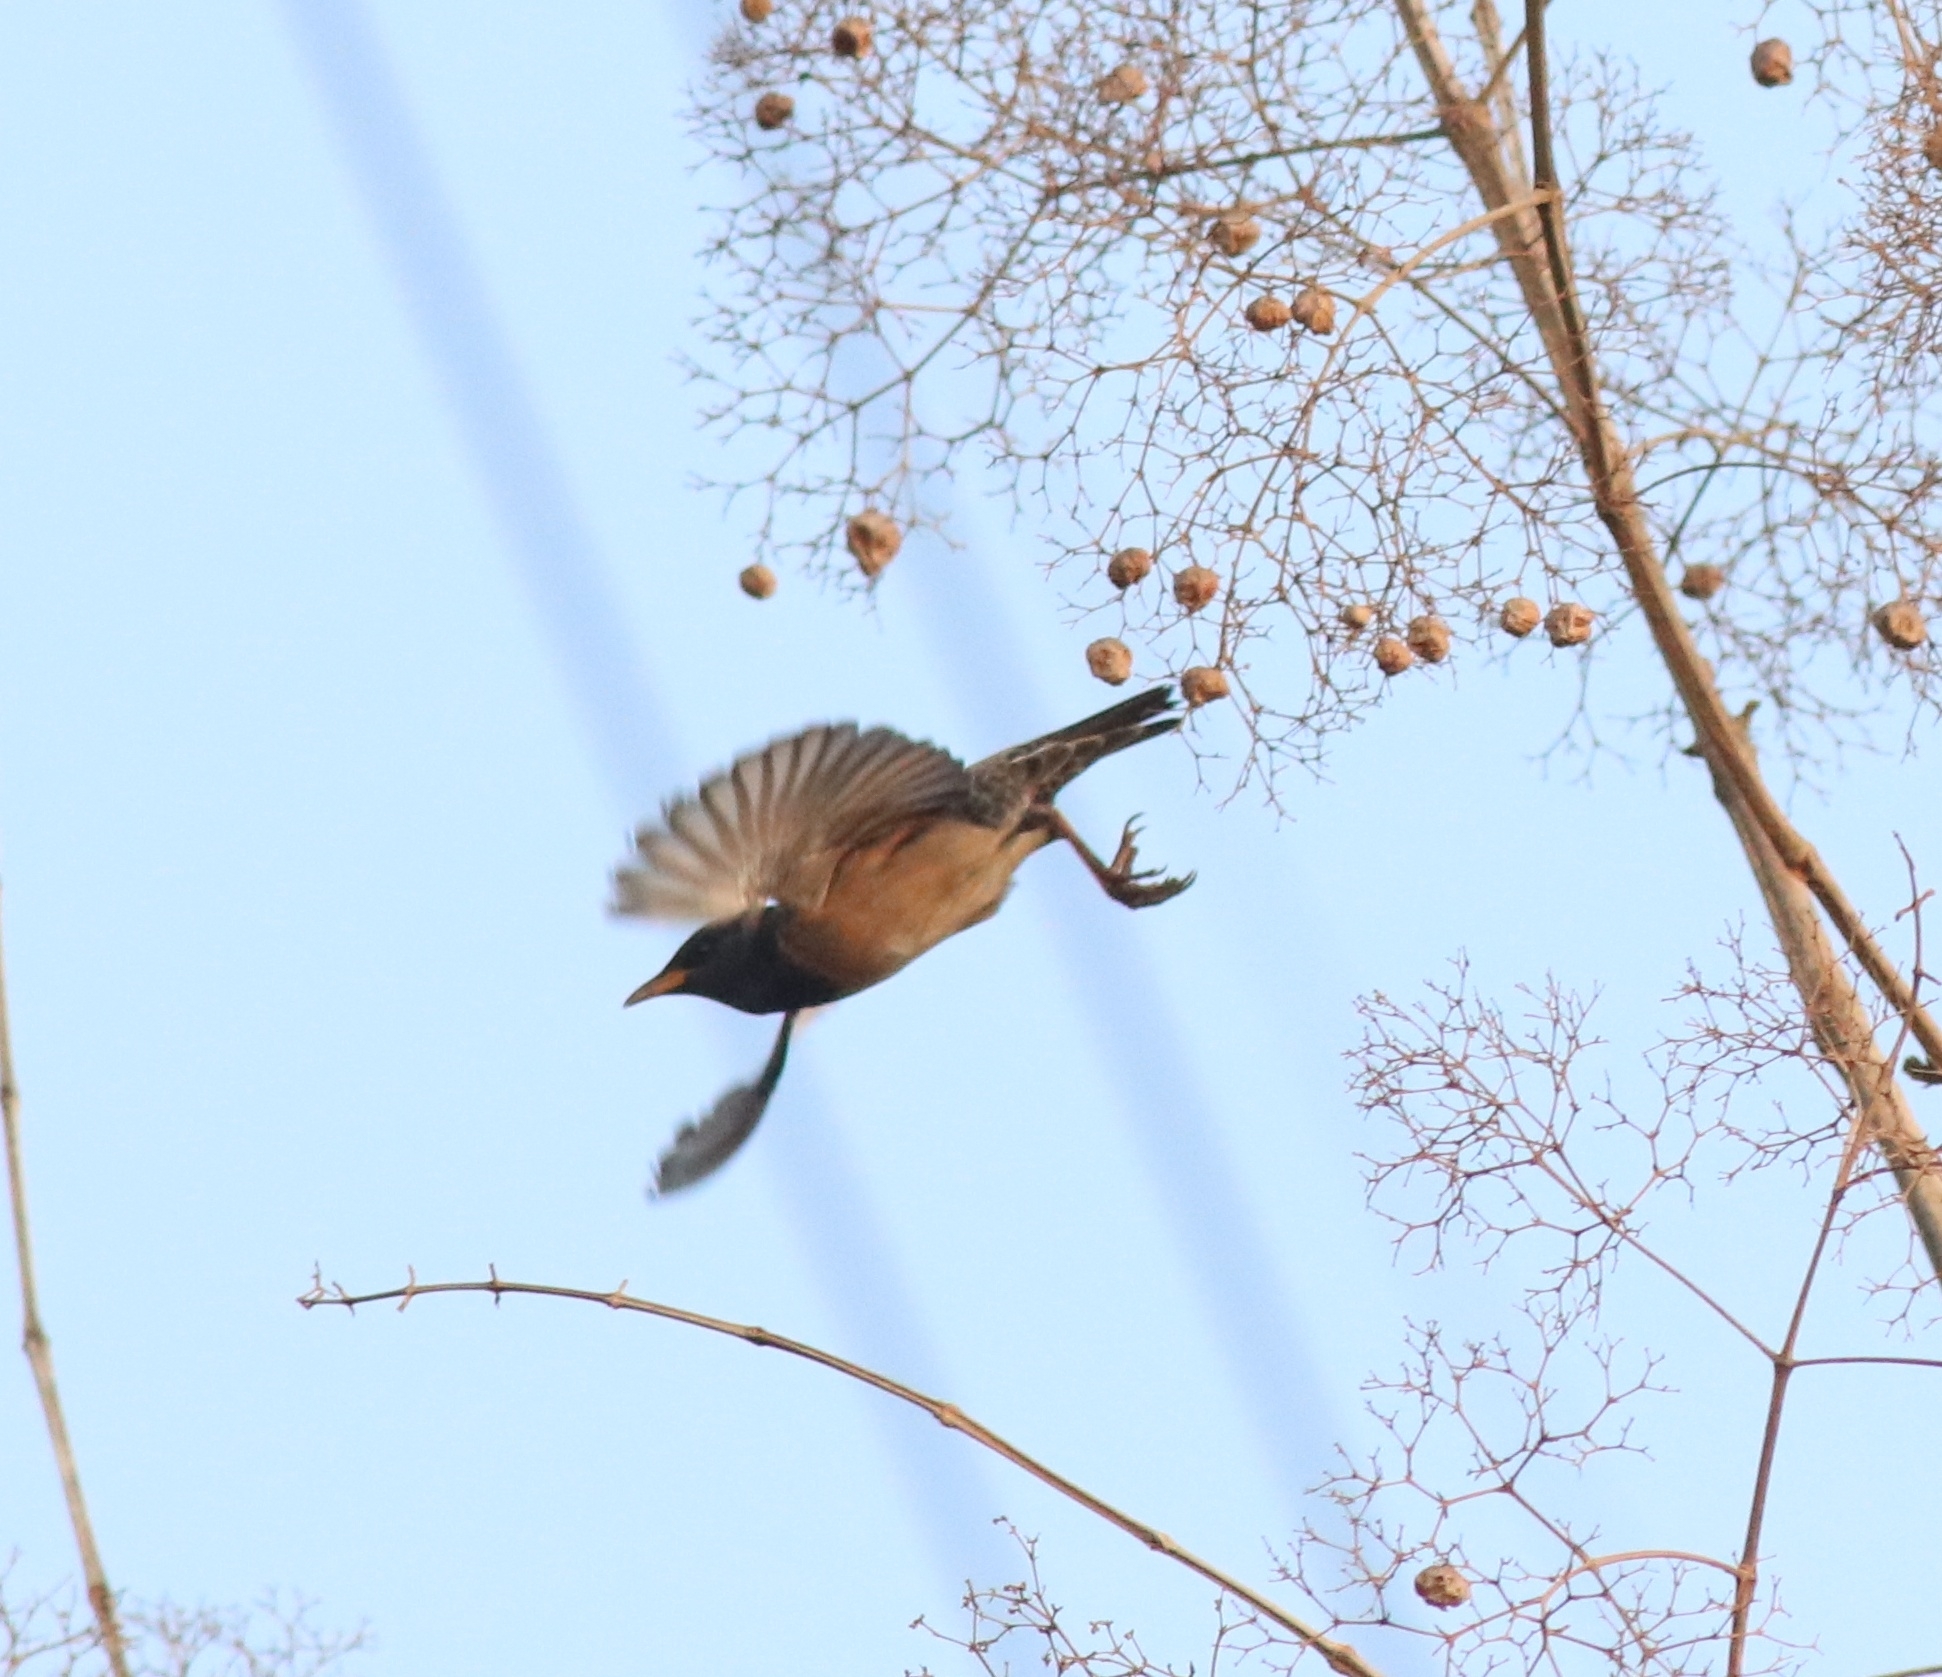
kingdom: Animalia
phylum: Chordata
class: Aves
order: Passeriformes
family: Sturnidae
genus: Pastor
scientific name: Pastor roseus
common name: Rosy starling
